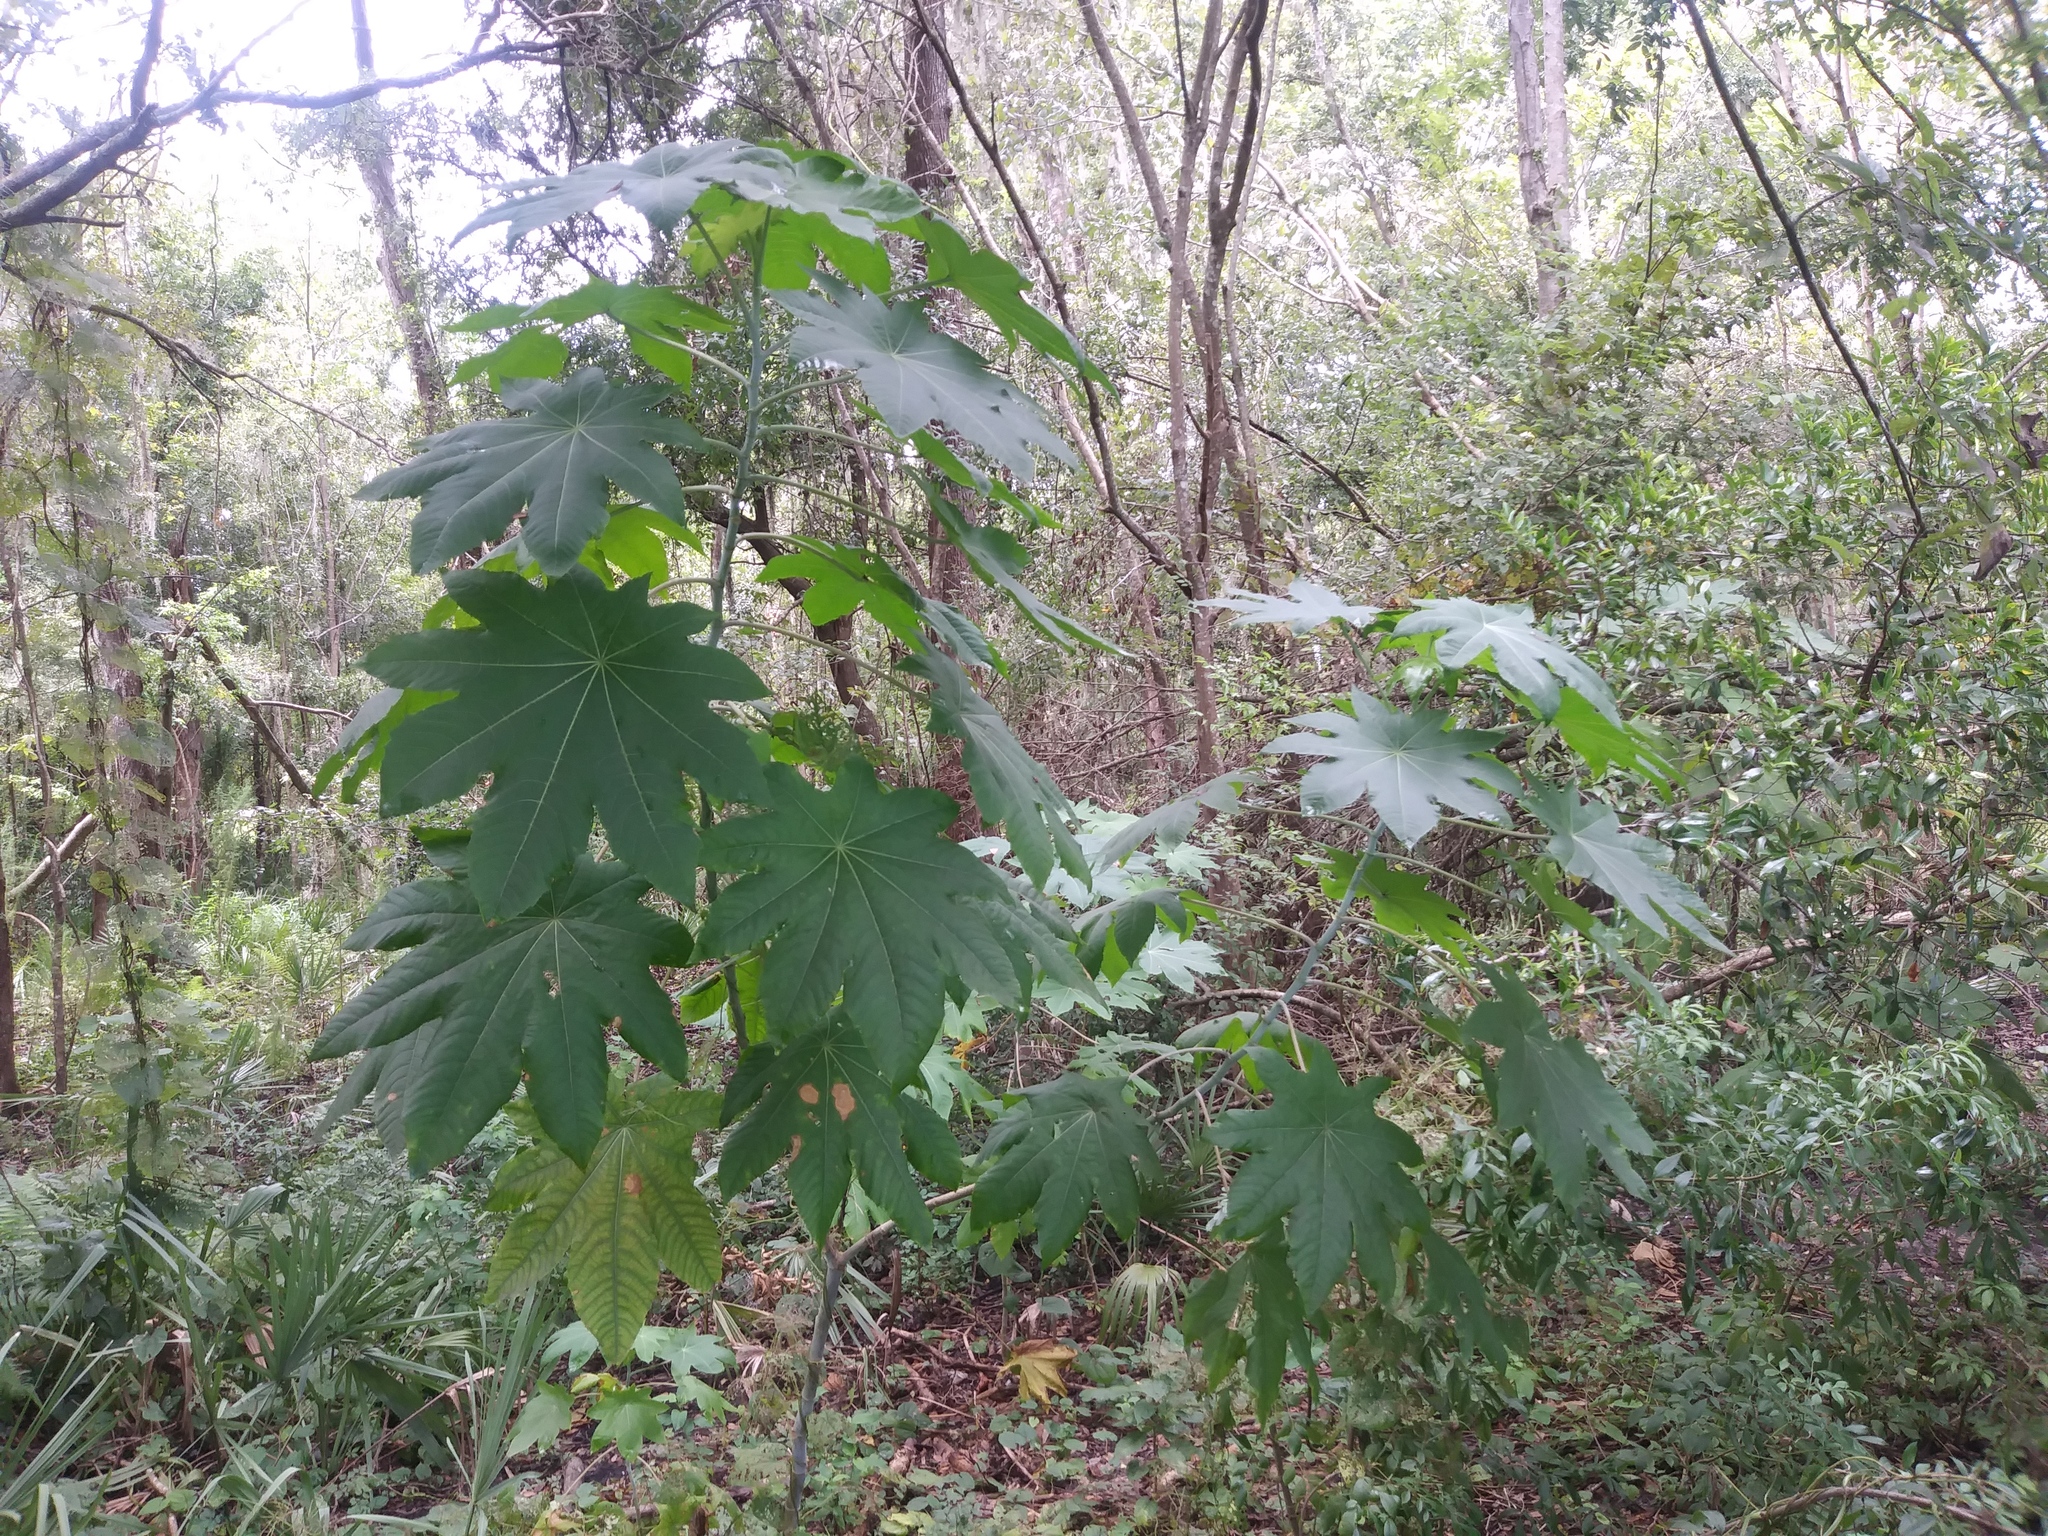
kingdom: Plantae
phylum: Tracheophyta
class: Magnoliopsida
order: Malpighiales
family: Euphorbiaceae
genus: Ricinus
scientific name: Ricinus communis
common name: Castor-oil-plant
